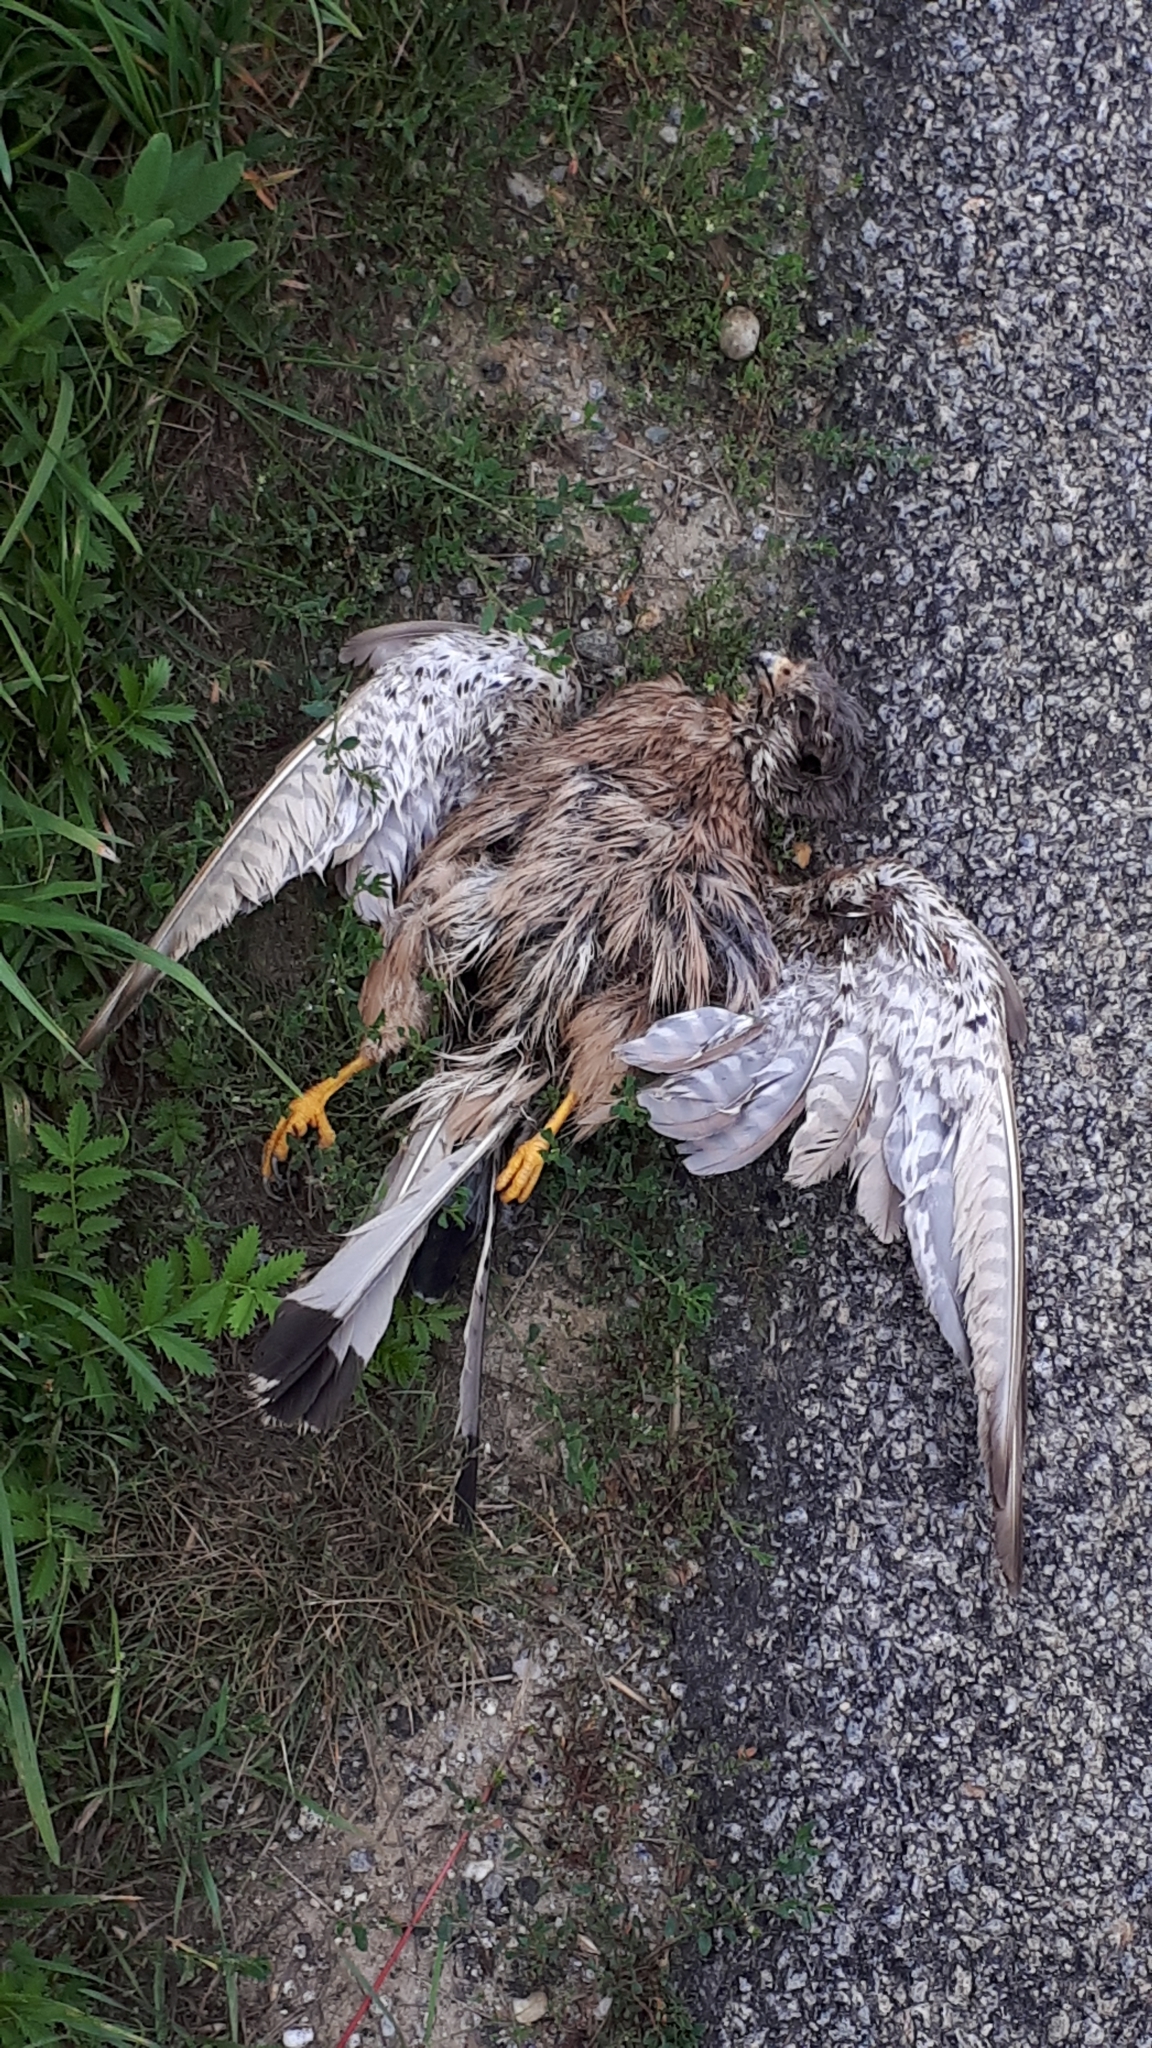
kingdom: Animalia
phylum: Chordata
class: Aves
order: Falconiformes
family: Falconidae
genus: Falco
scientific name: Falco tinnunculus
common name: Common kestrel
